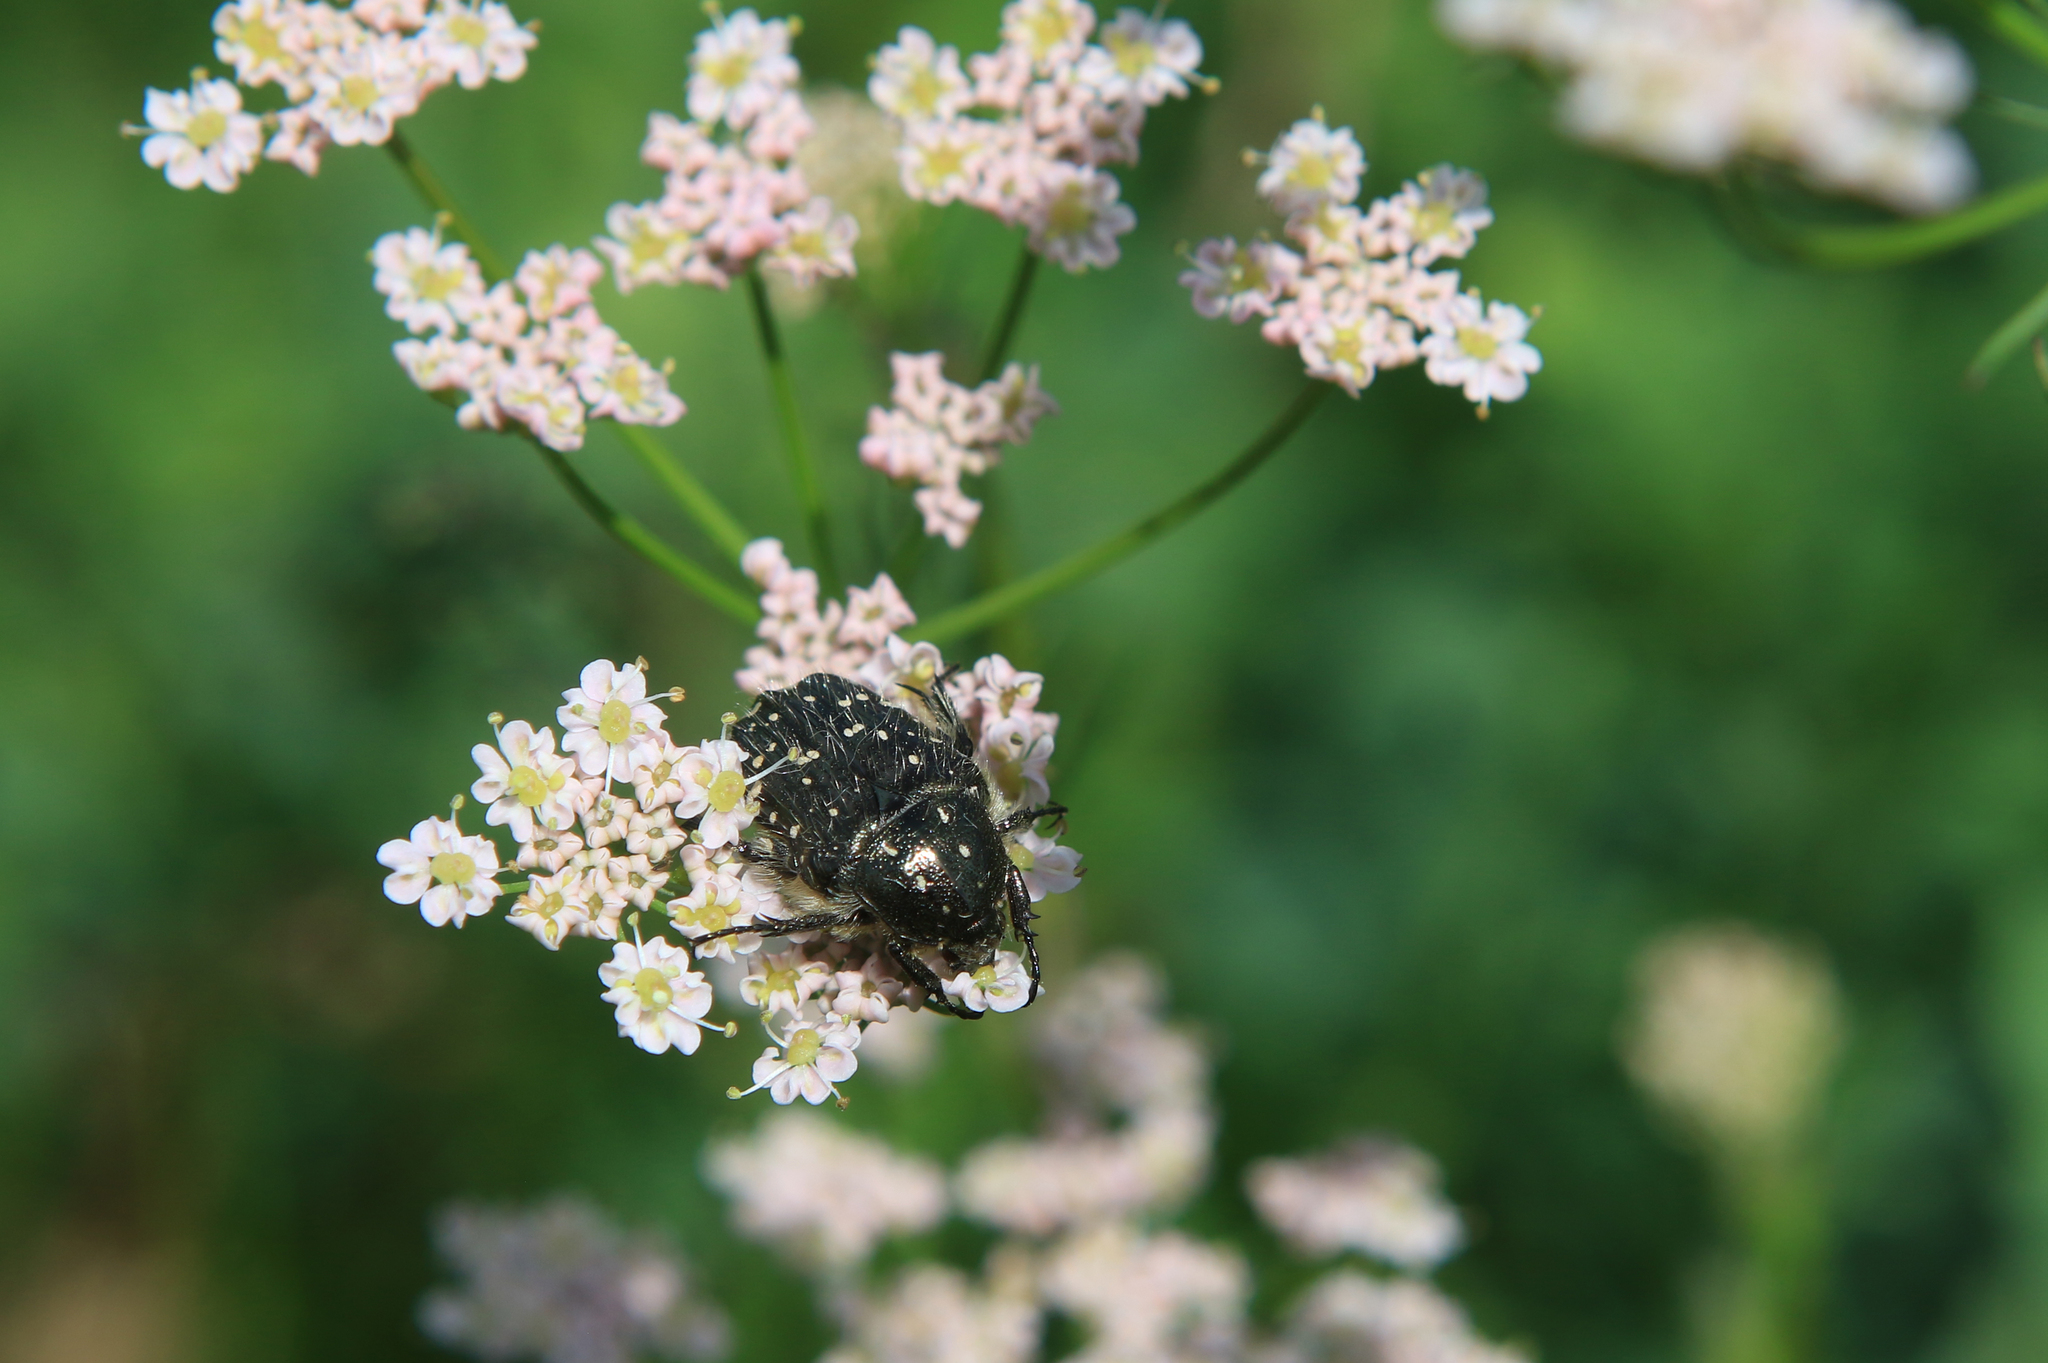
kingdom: Animalia
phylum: Arthropoda
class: Insecta
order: Coleoptera
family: Scarabaeidae
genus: Oxythyrea
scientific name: Oxythyrea funesta
